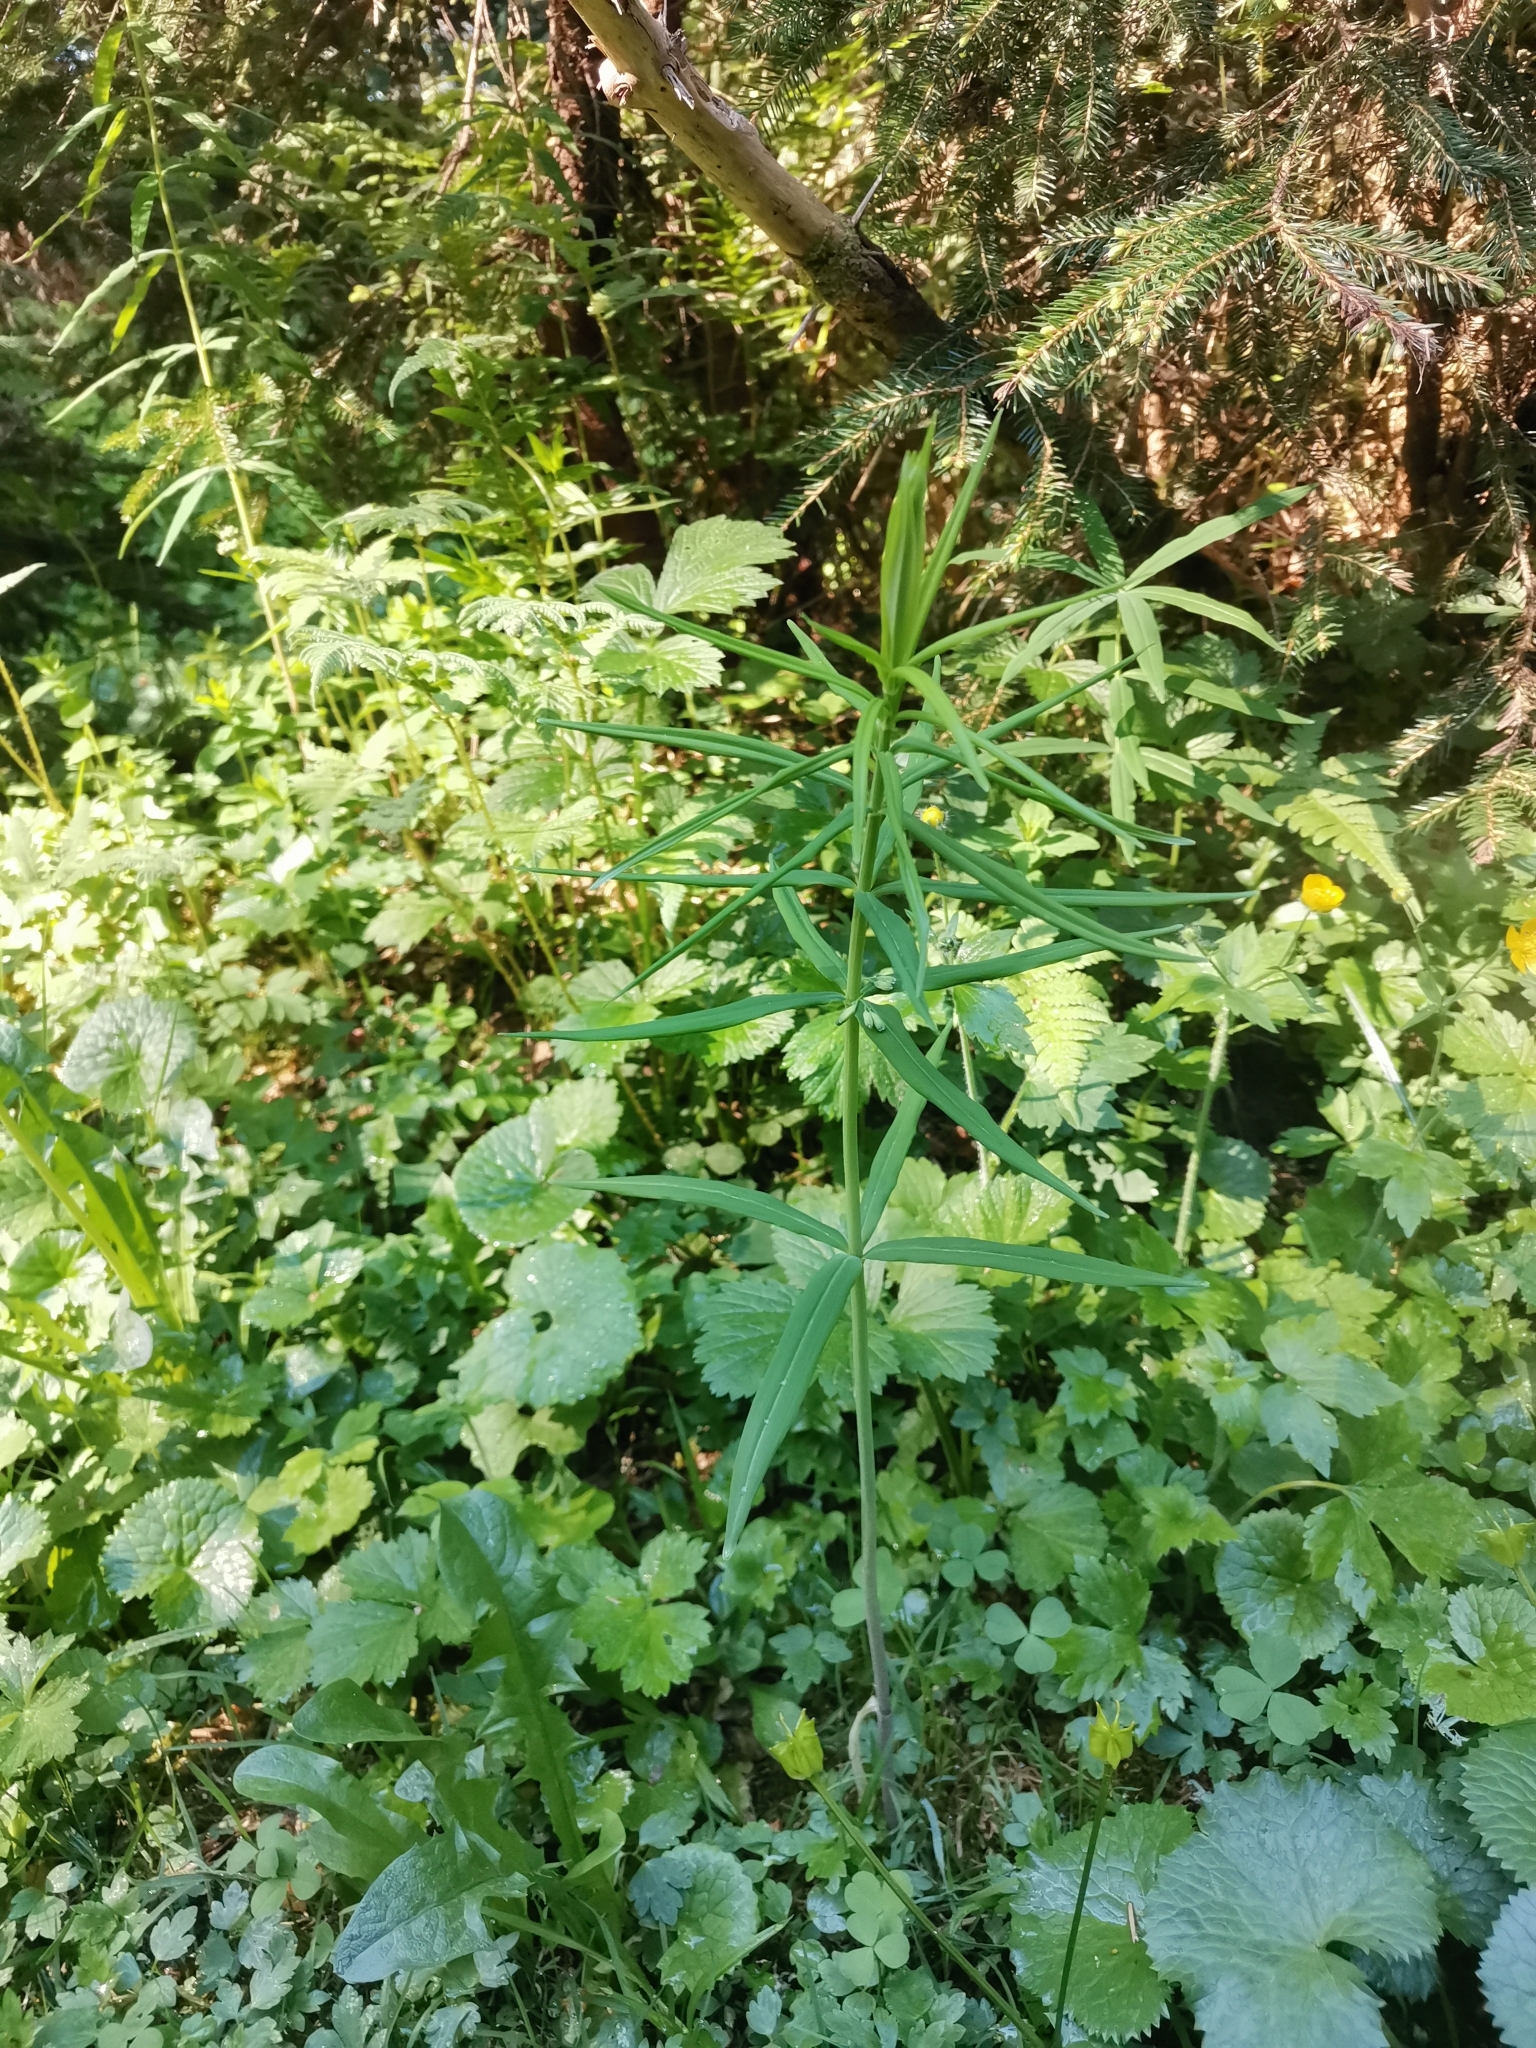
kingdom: Plantae
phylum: Tracheophyta
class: Liliopsida
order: Asparagales
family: Asparagaceae
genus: Polygonatum
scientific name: Polygonatum verticillatum
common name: Whorled solomon's-seal
